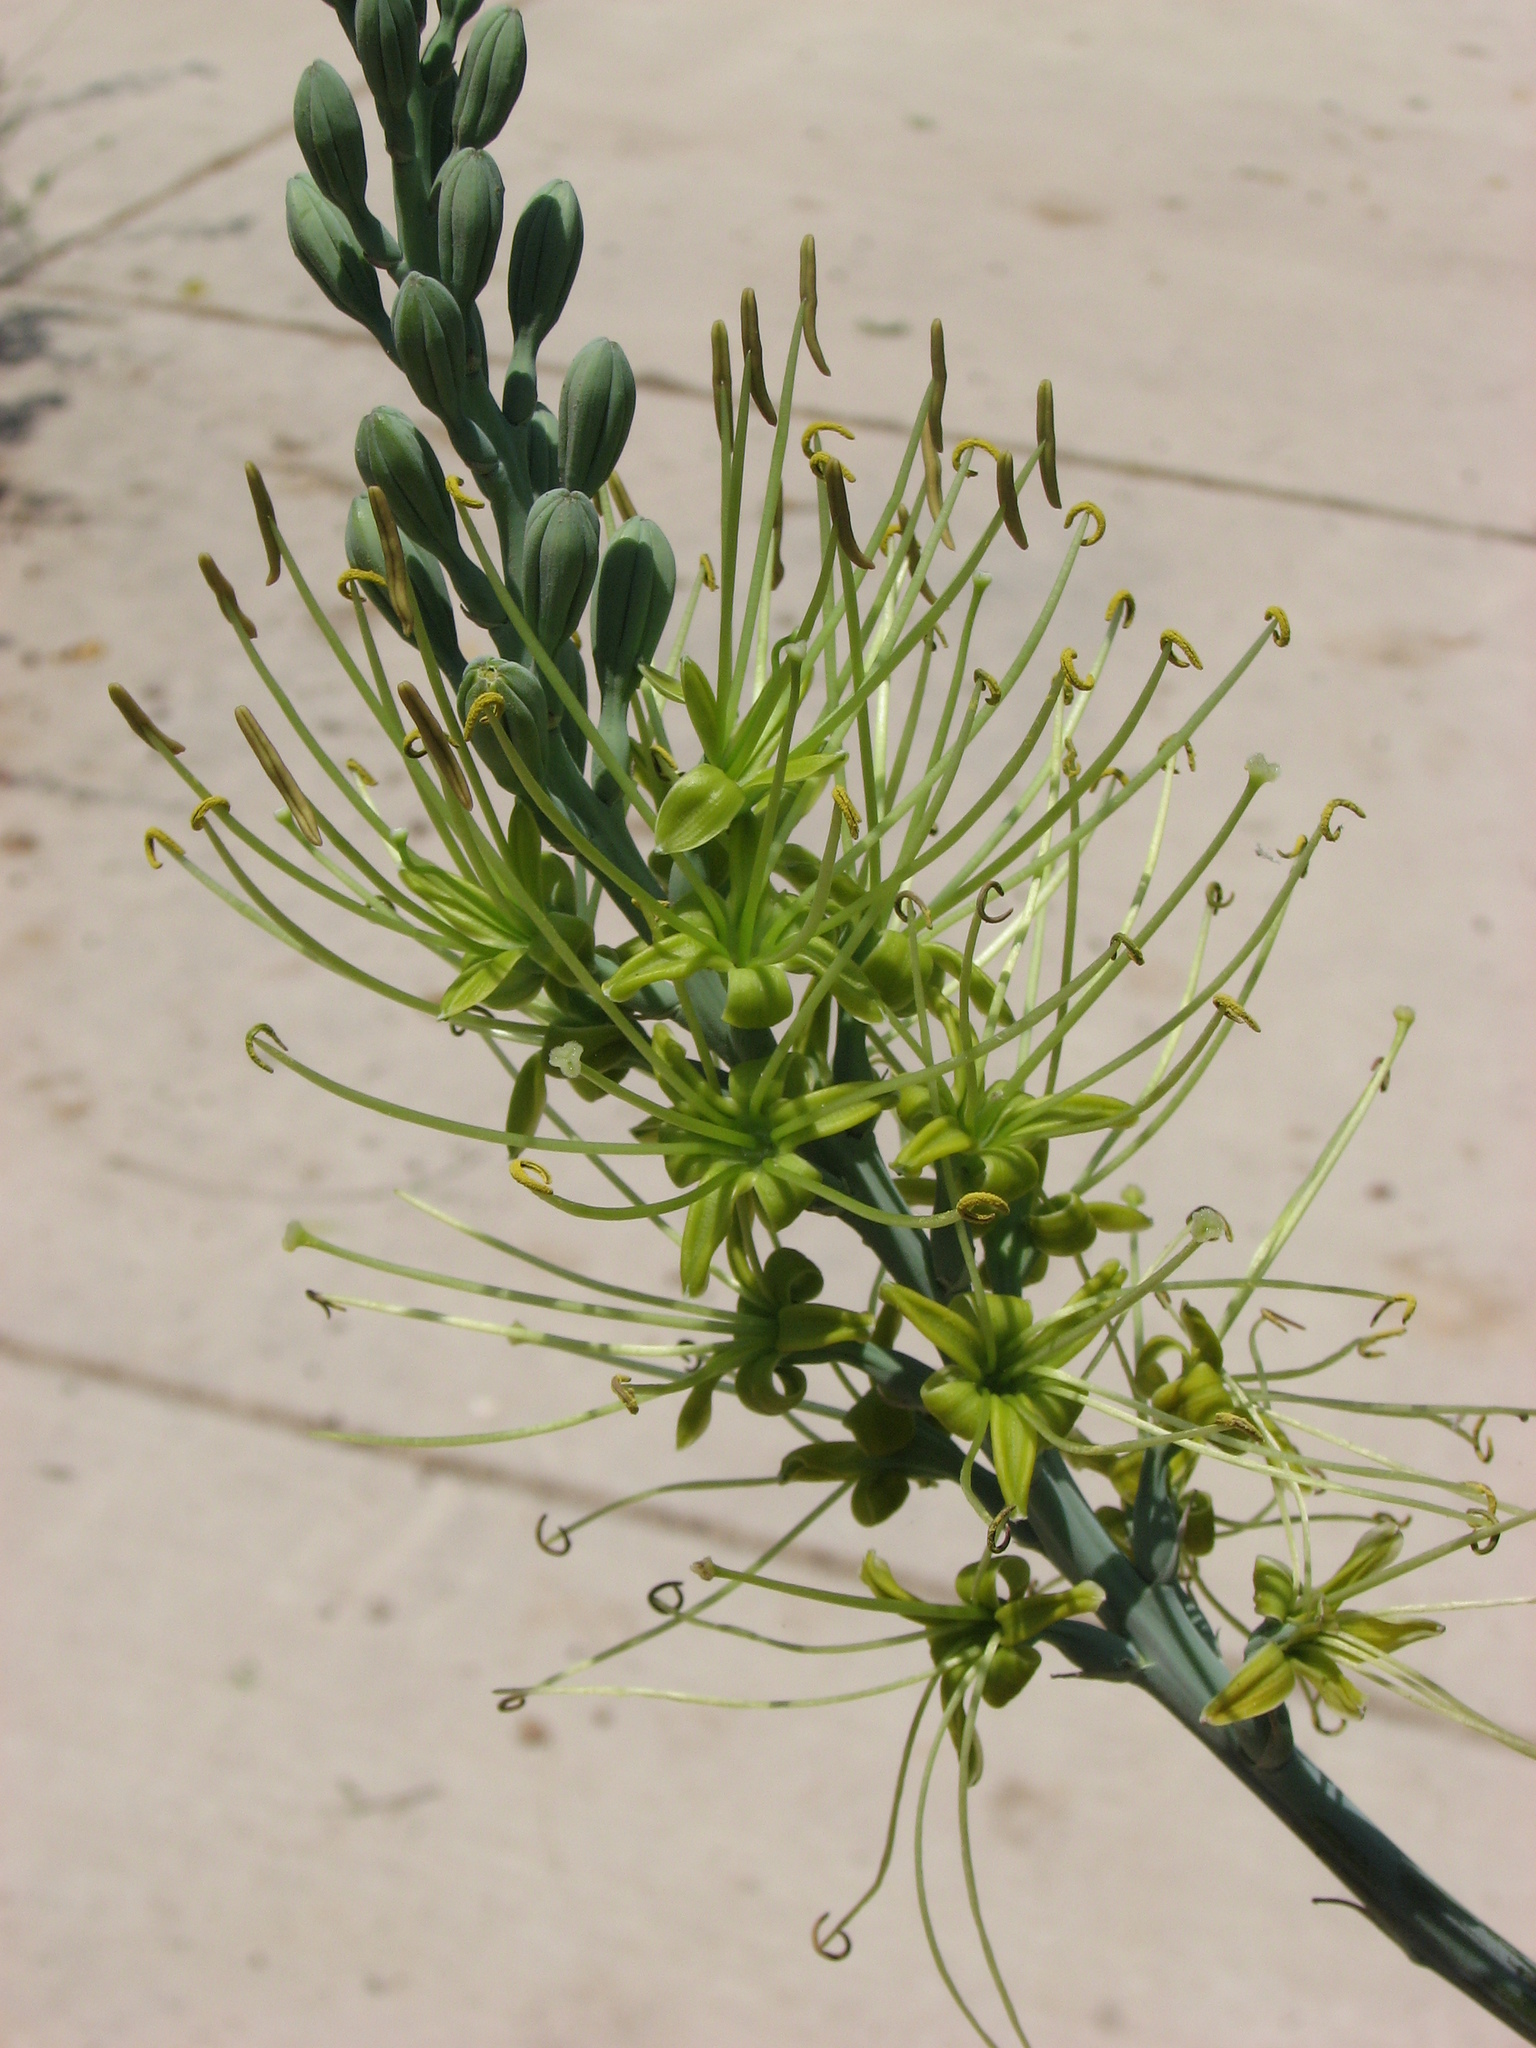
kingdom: Plantae
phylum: Tracheophyta
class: Liliopsida
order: Asparagales
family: Asparagaceae
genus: Agave
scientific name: Agave variegata
